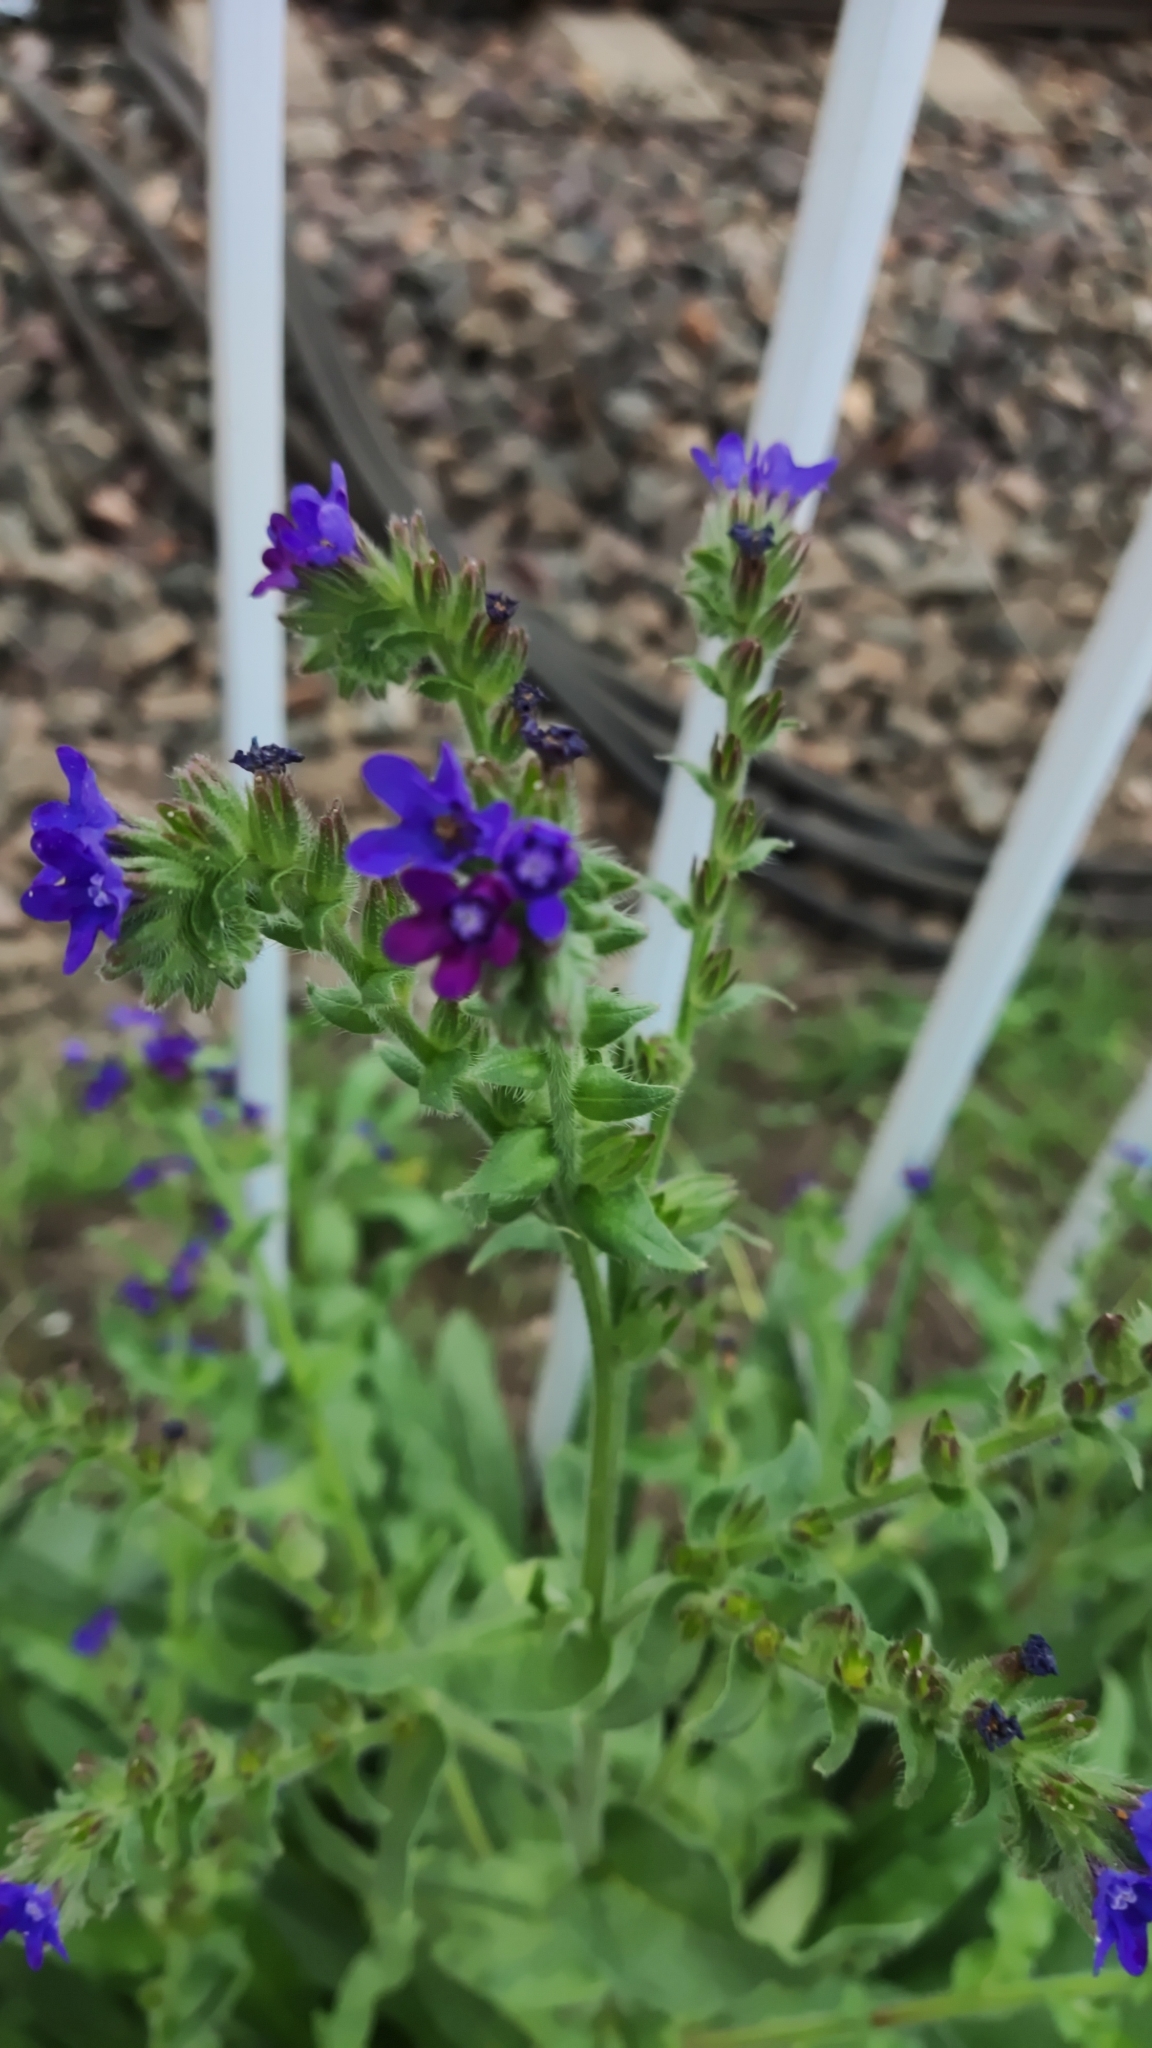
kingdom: Plantae
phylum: Tracheophyta
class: Magnoliopsida
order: Boraginales
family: Boraginaceae
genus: Anchusa
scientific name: Anchusa officinalis
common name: Alkanet
